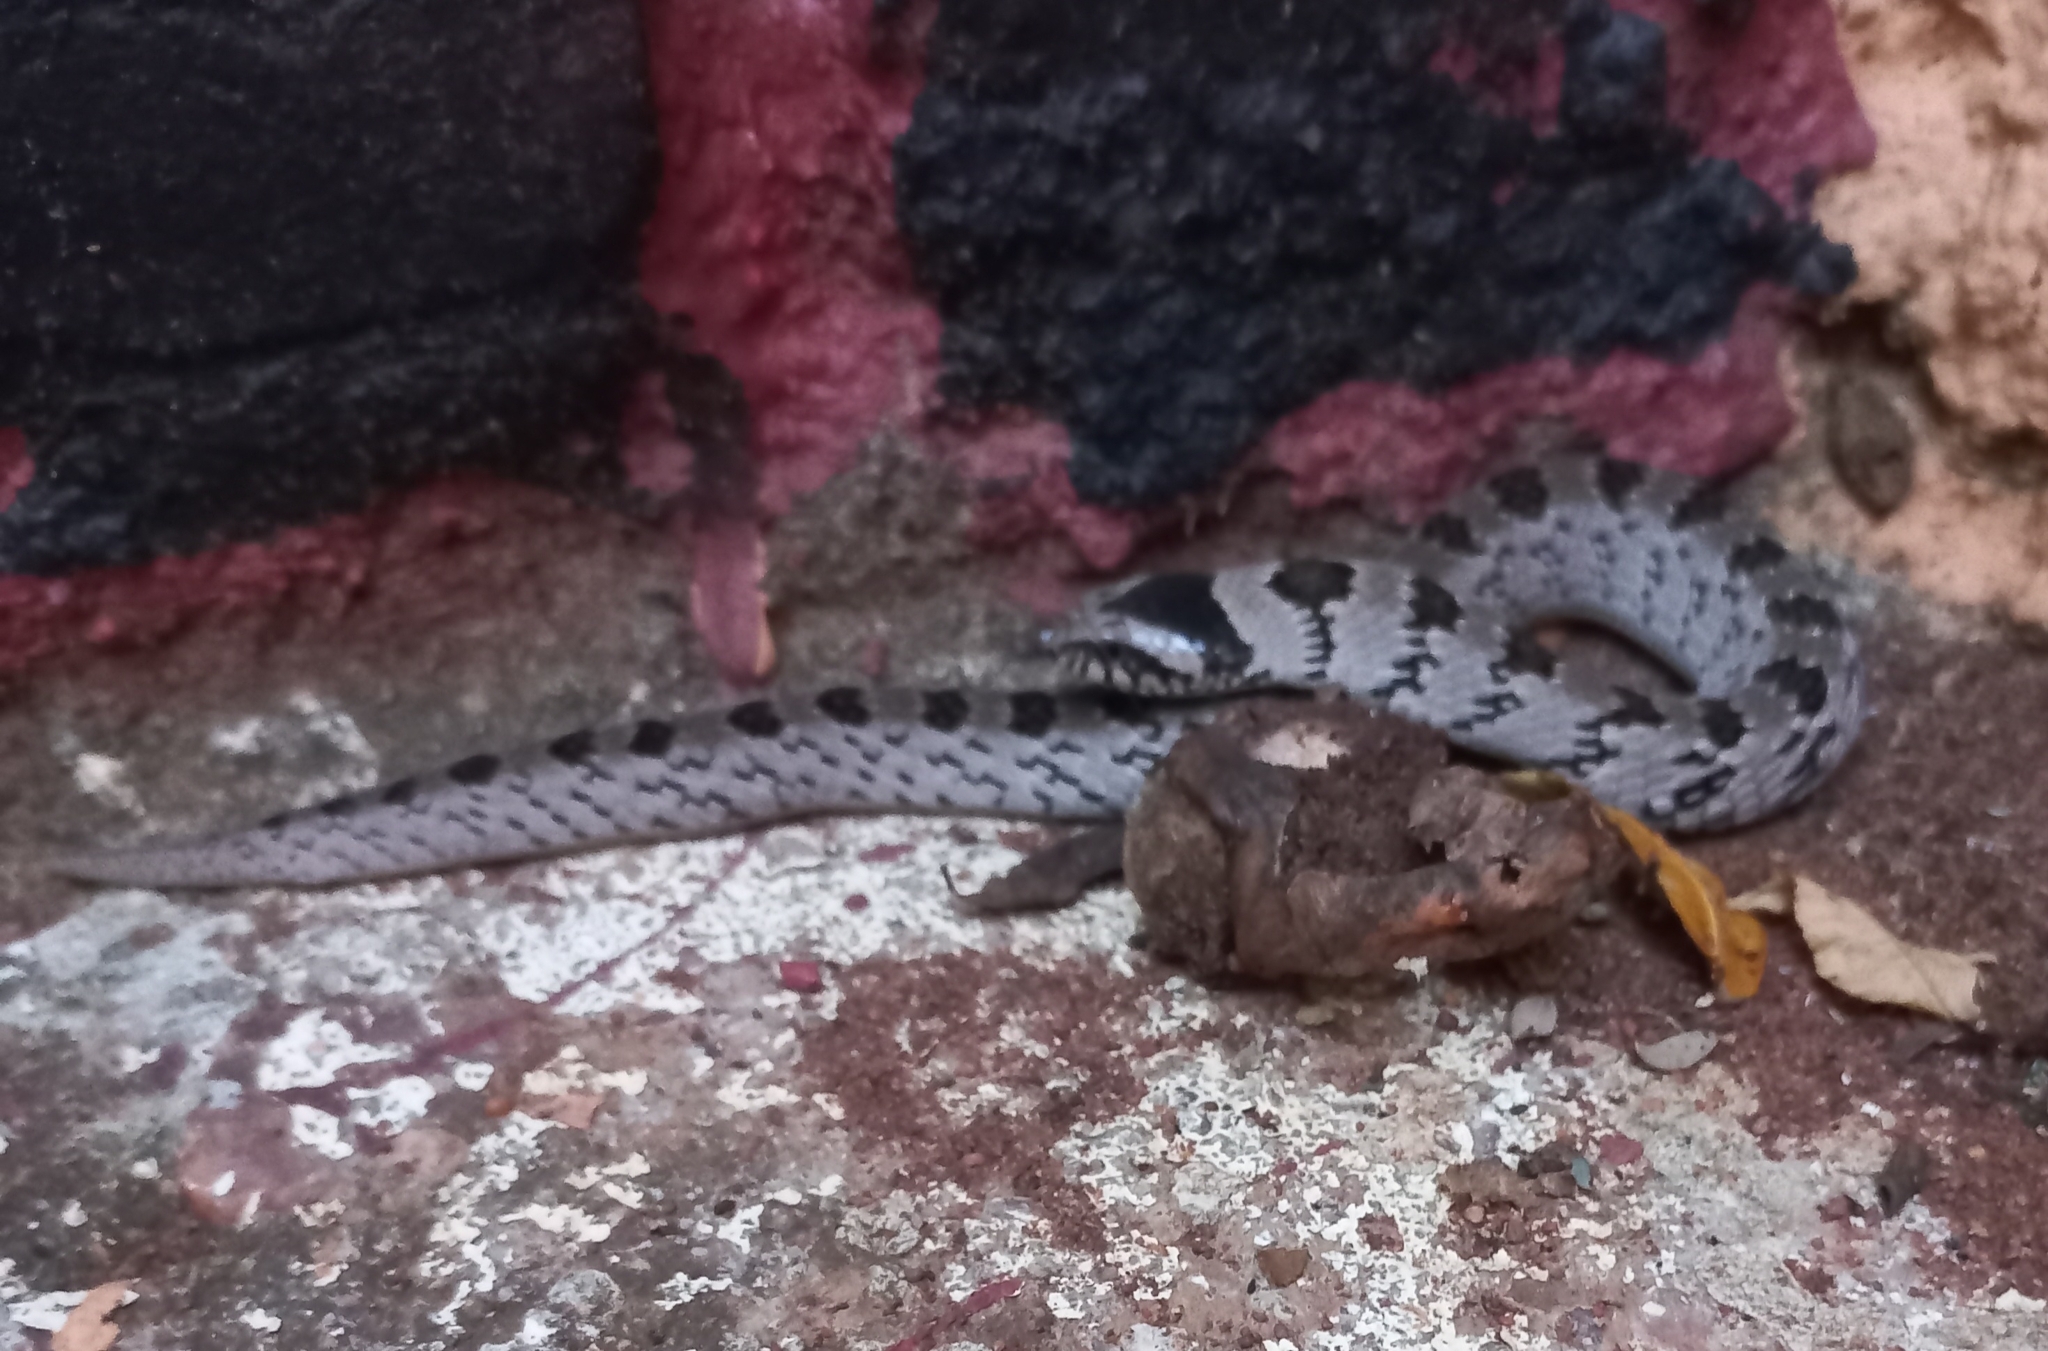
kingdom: Animalia
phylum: Chordata
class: Squamata
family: Viperidae
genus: Causus
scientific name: Causus defilippii
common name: Snouted night adder
